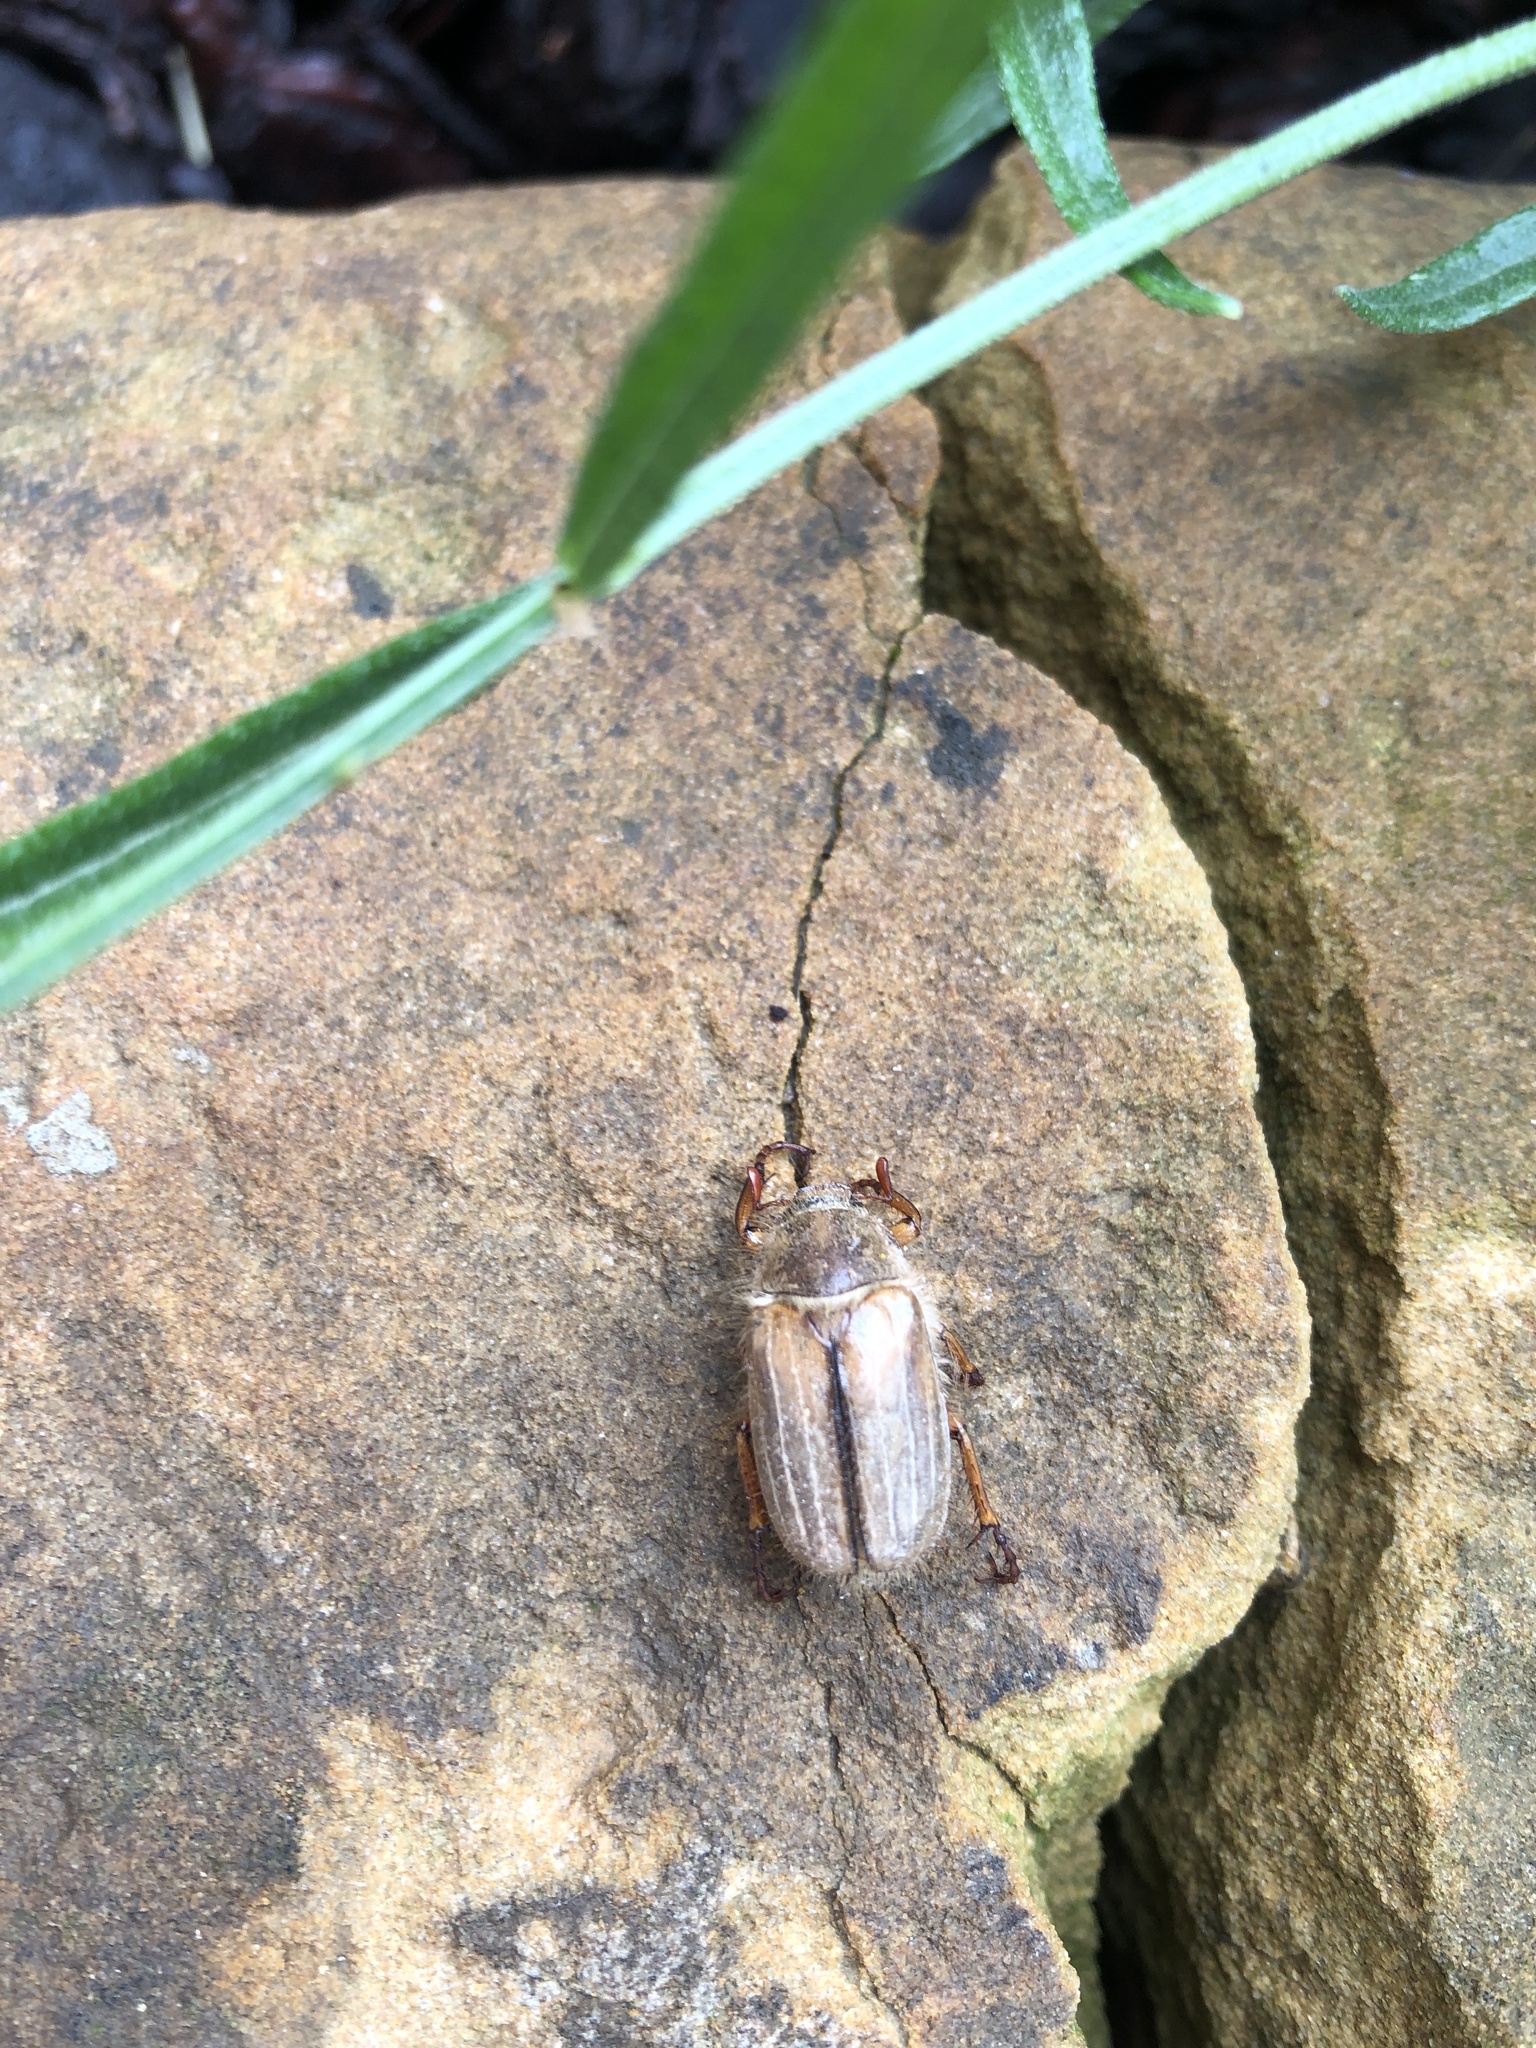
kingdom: Animalia
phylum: Arthropoda
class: Insecta
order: Coleoptera
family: Scarabaeidae
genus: Amphimallon
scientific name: Amphimallon solstitiale
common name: Summer chafer
